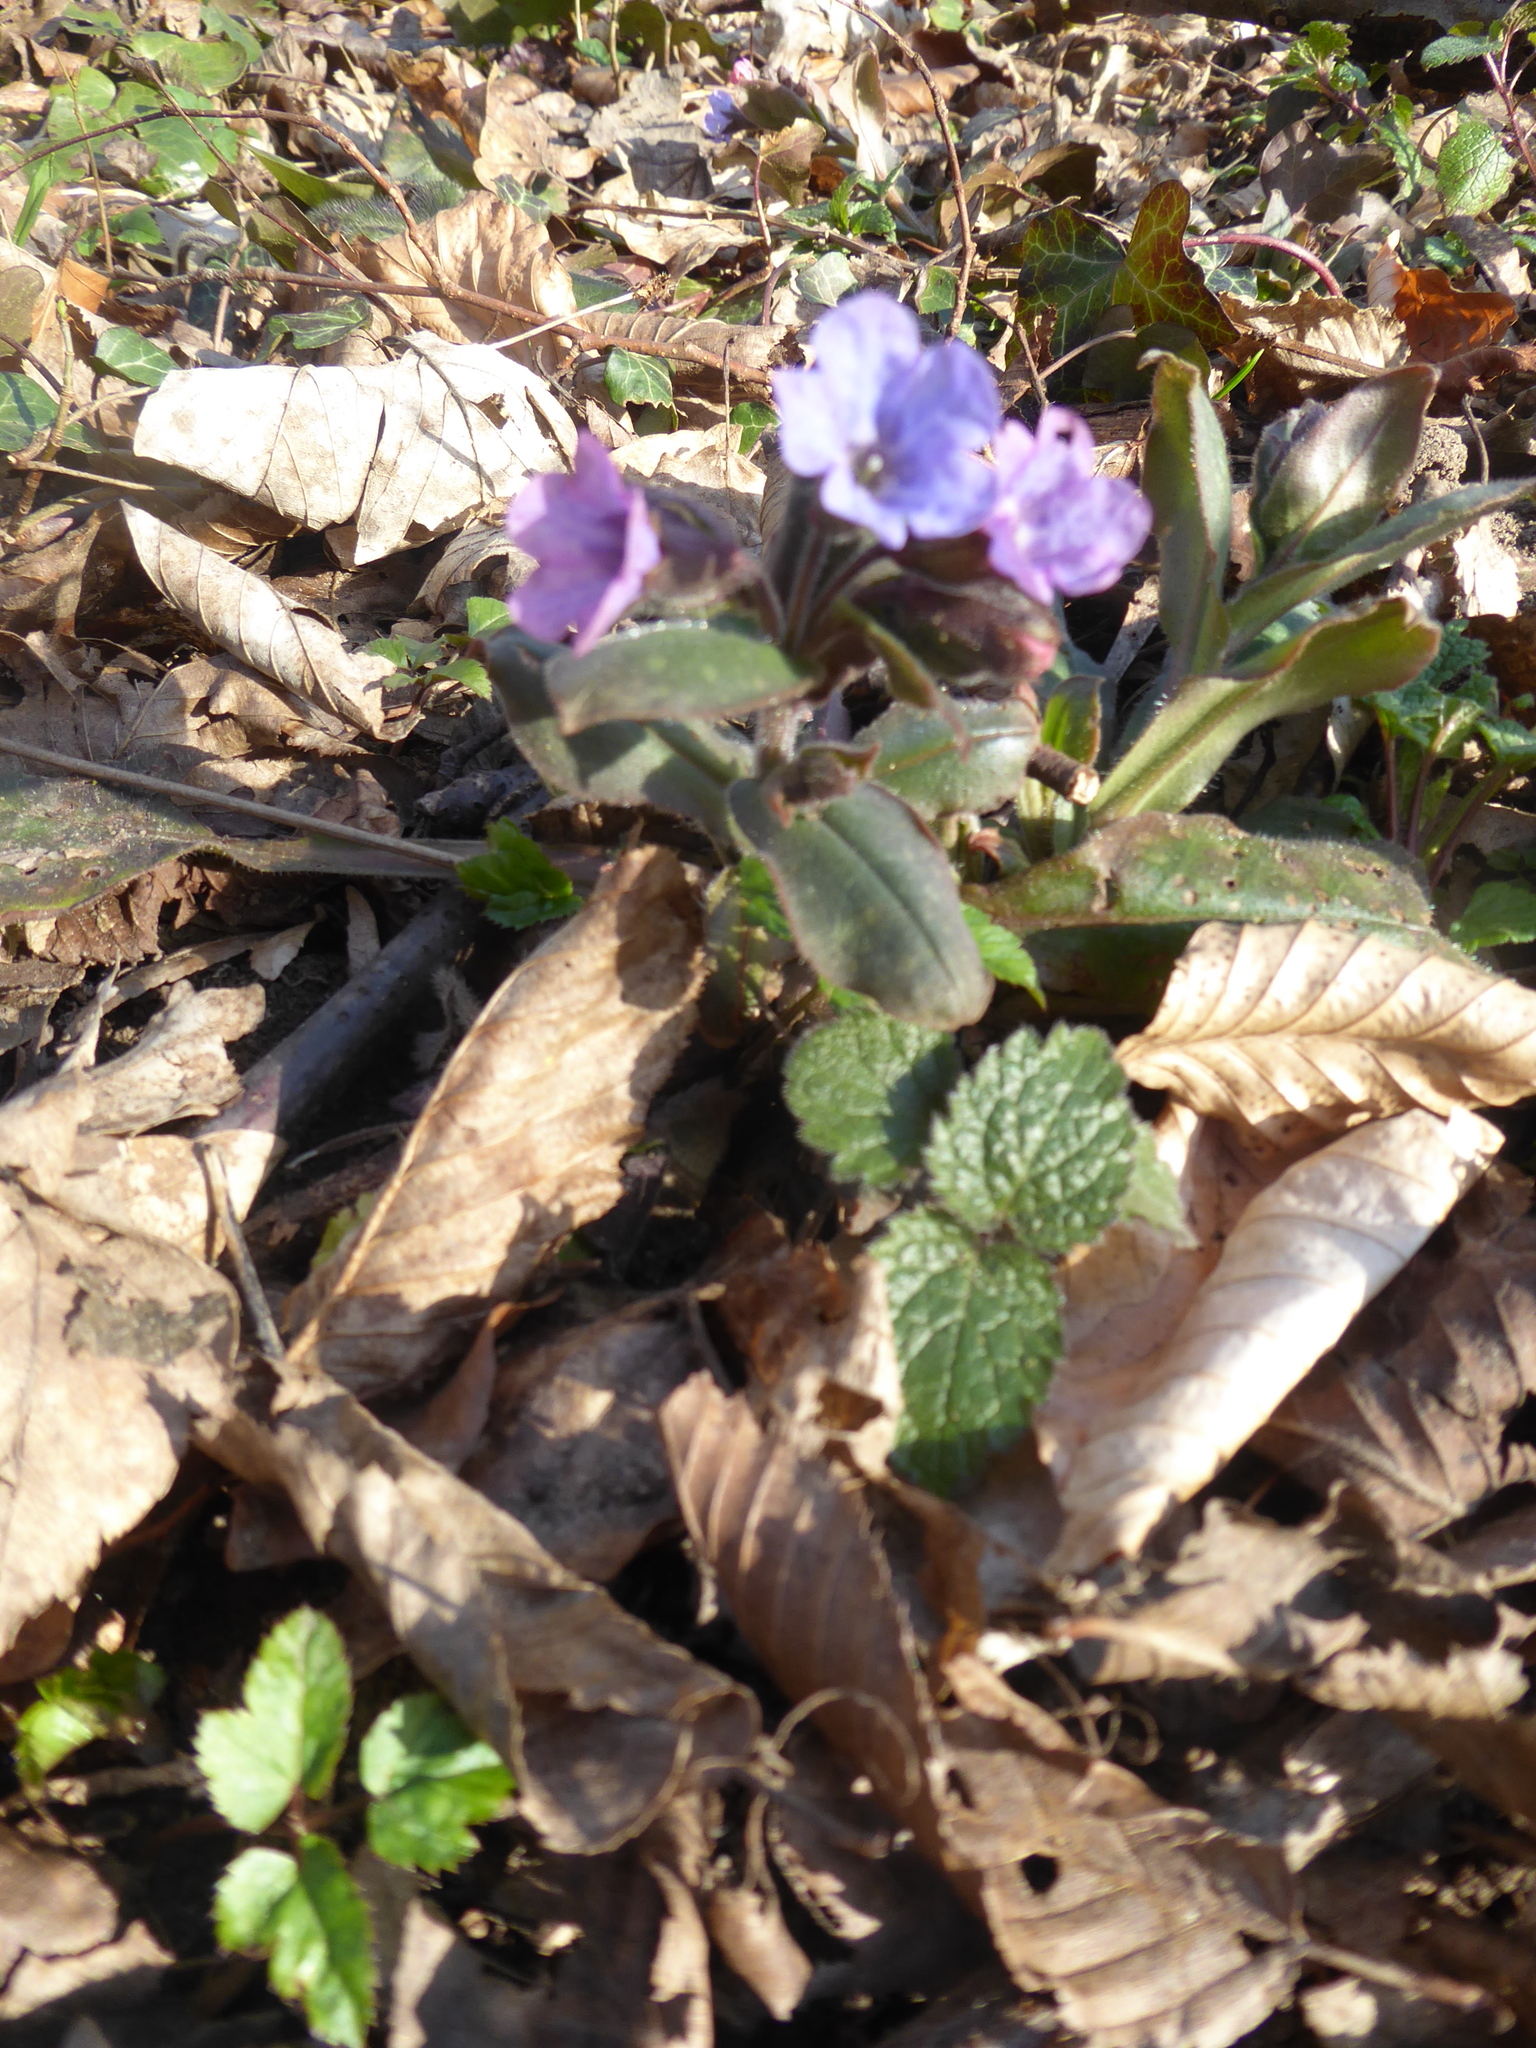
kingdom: Plantae
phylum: Tracheophyta
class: Magnoliopsida
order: Boraginales
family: Boraginaceae
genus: Pulmonaria
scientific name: Pulmonaria officinalis
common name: Lungwort
